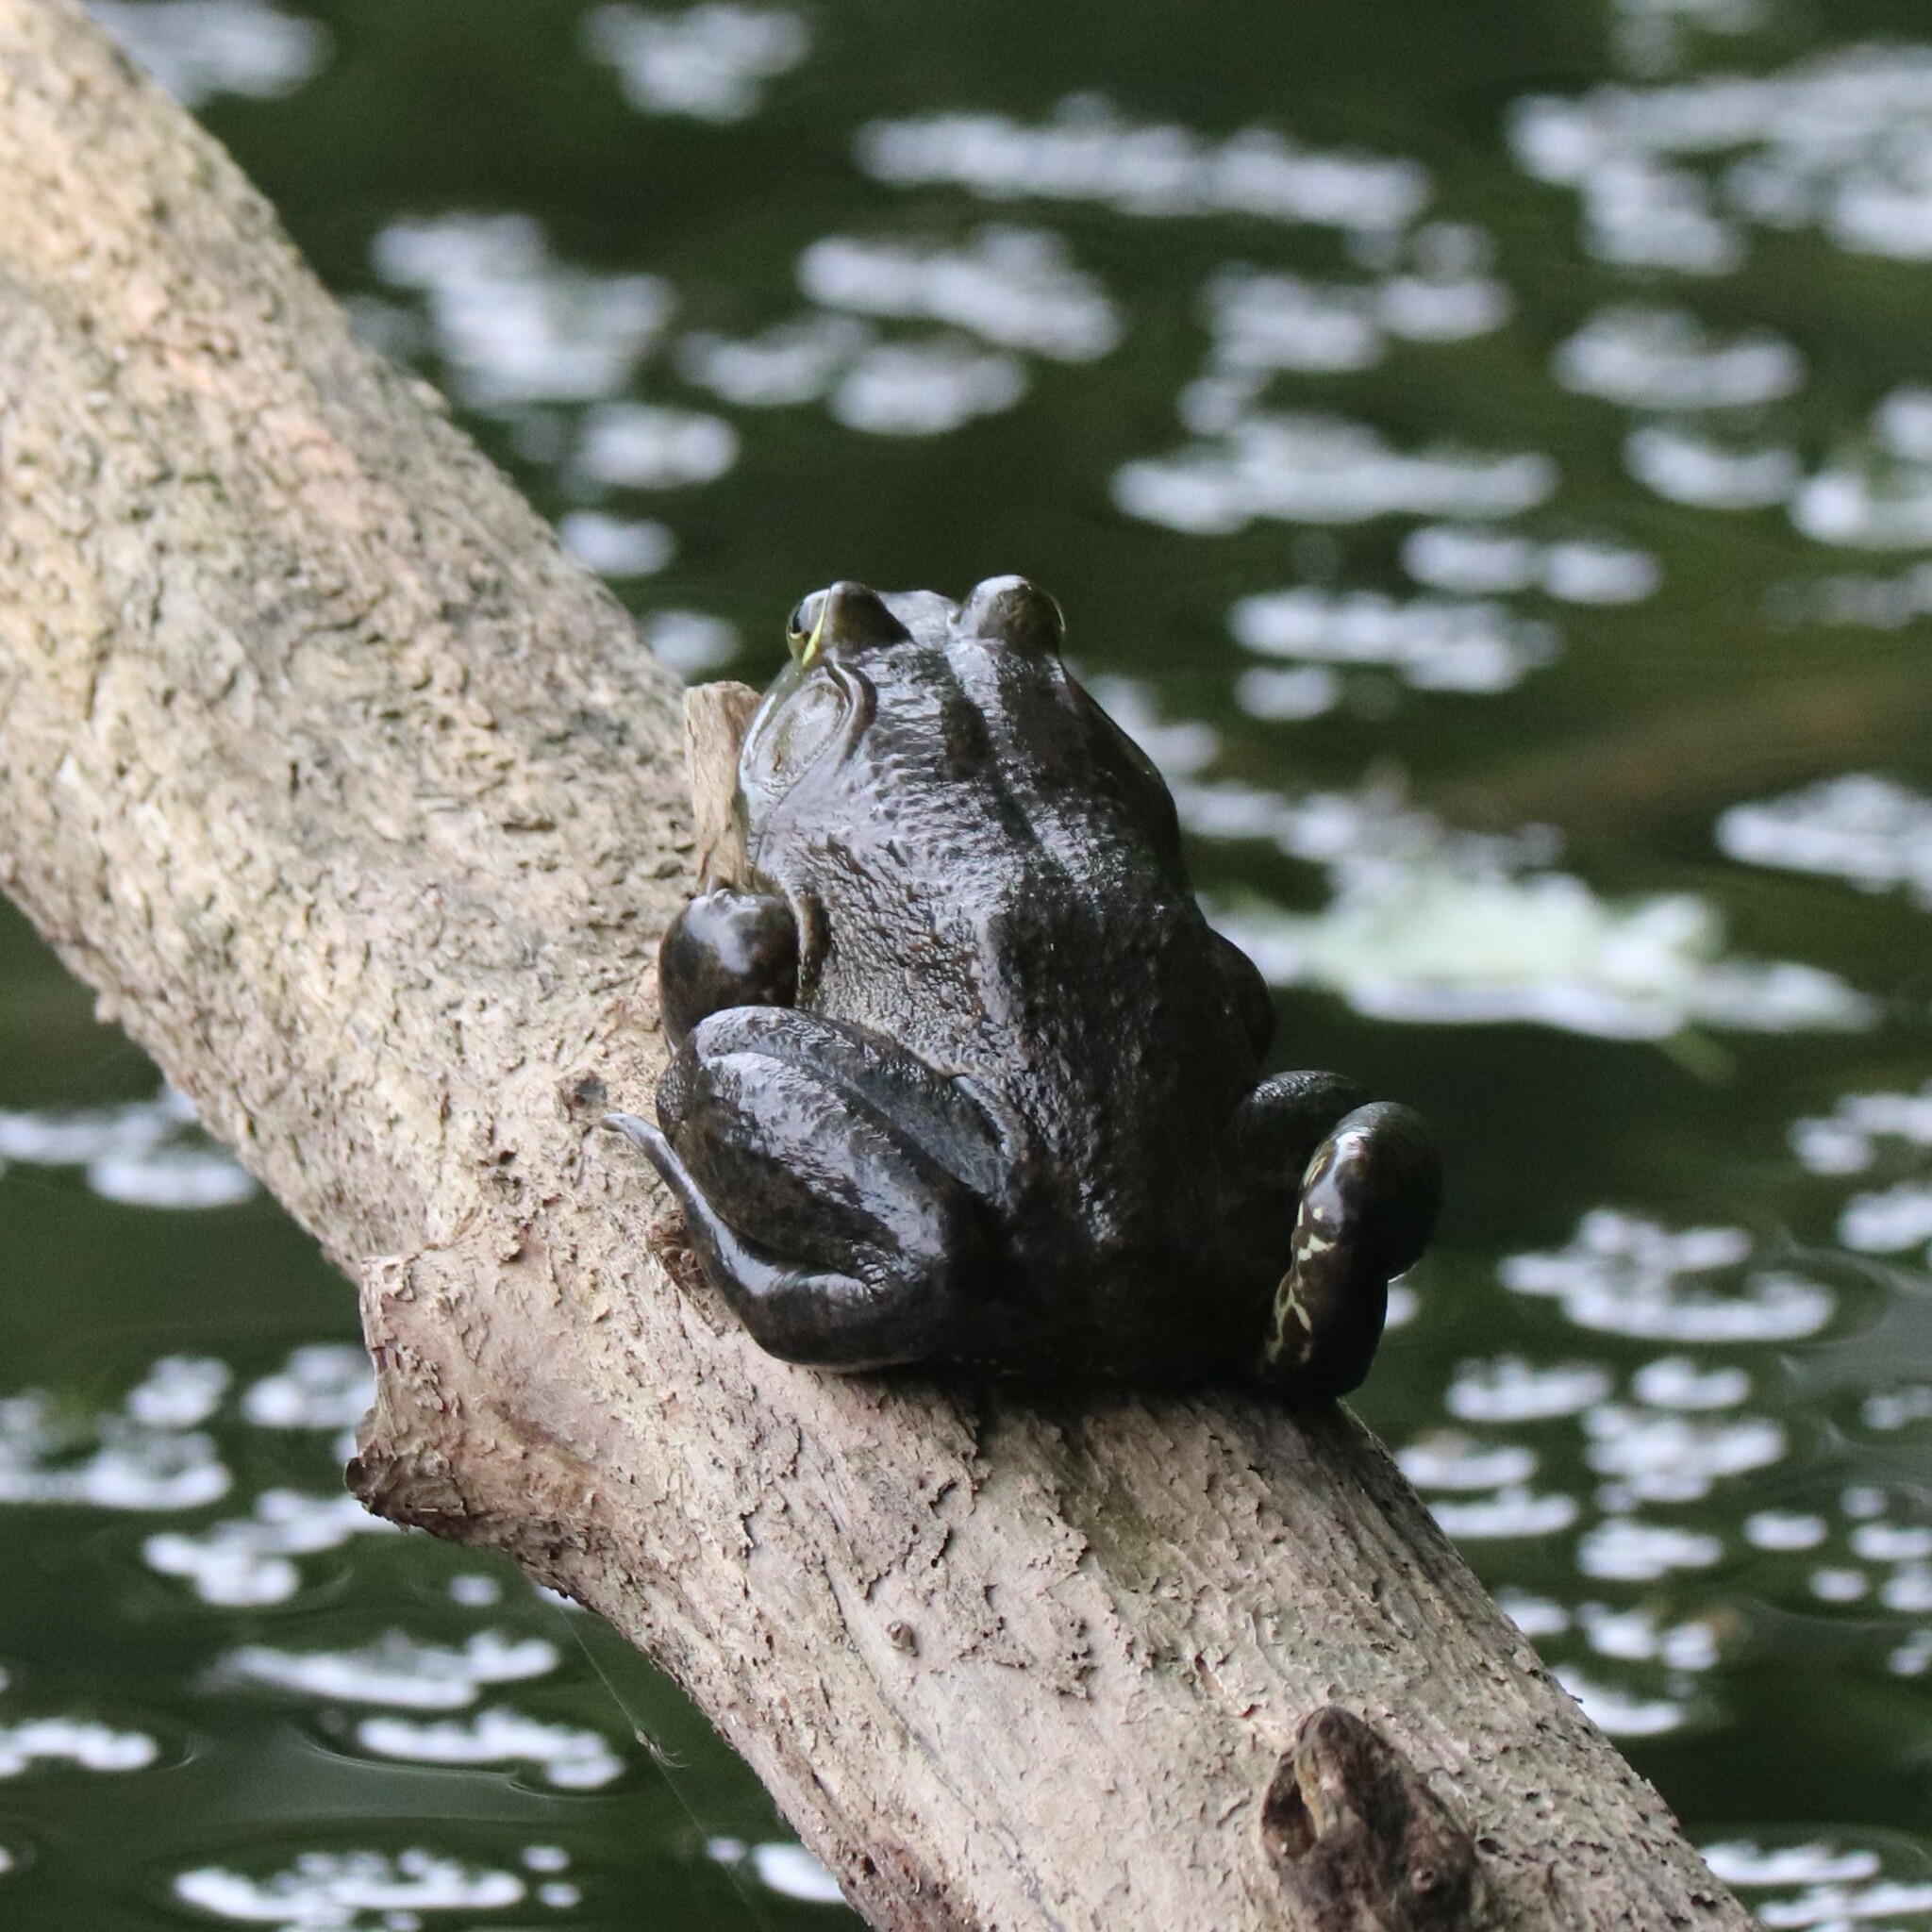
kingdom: Animalia
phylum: Chordata
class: Amphibia
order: Anura
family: Ranidae
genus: Lithobates
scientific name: Lithobates catesbeianus
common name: American bullfrog
